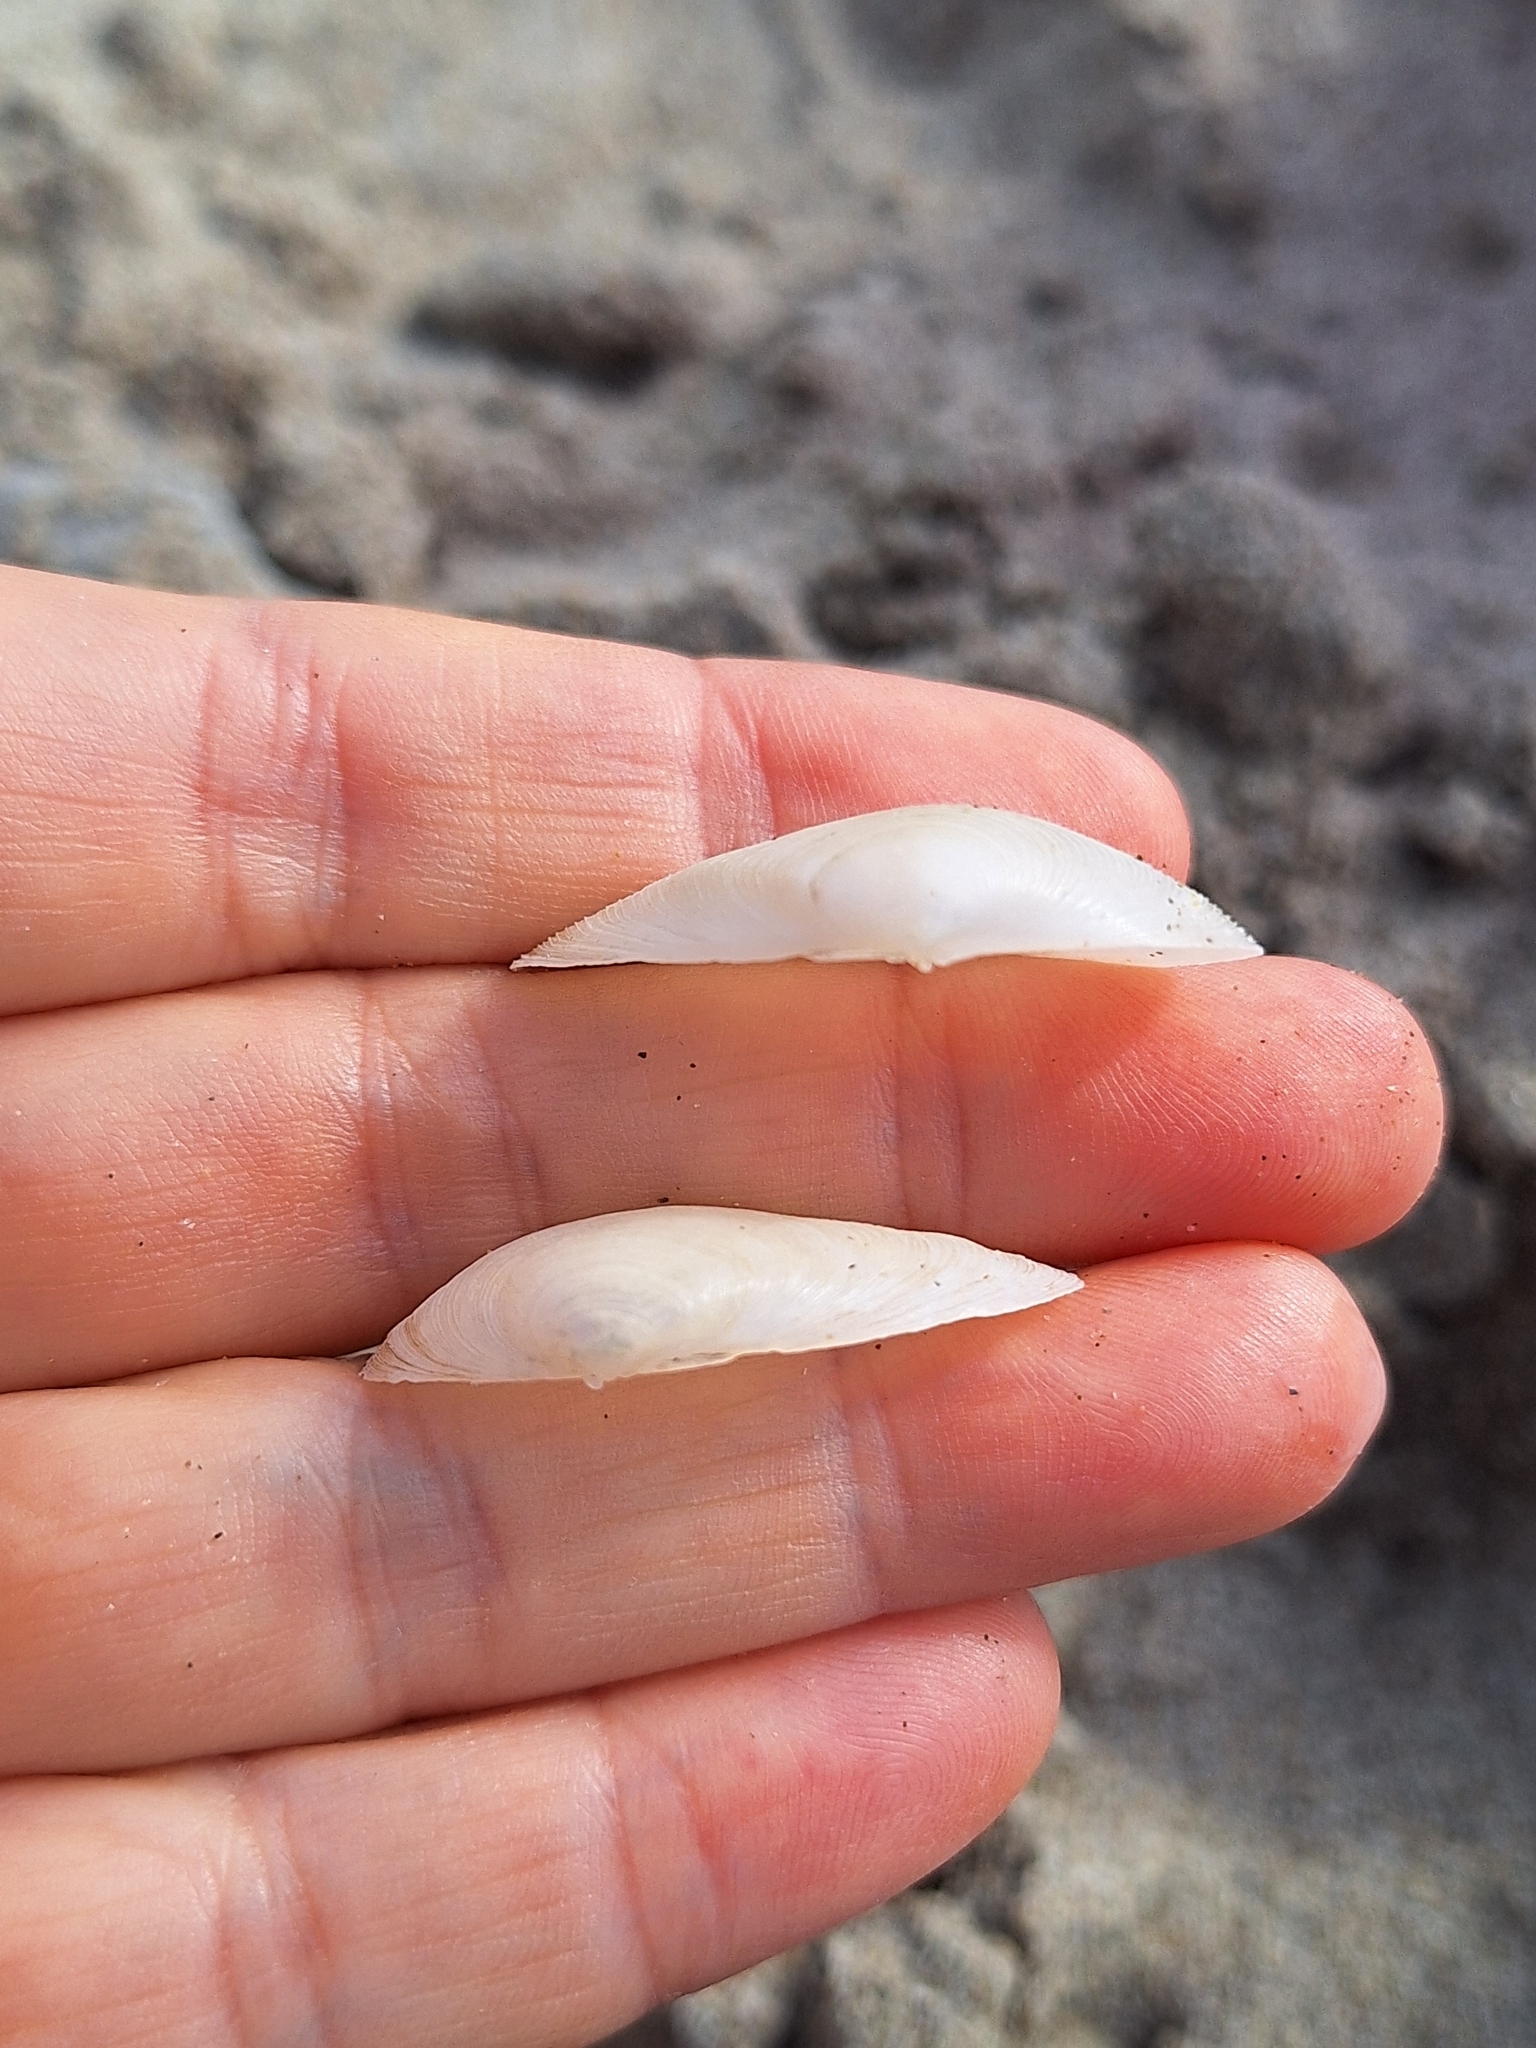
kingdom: Animalia
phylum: Mollusca
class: Bivalvia
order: Cardiida
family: Tellinidae
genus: Gastrana
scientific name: Gastrana fragilis
